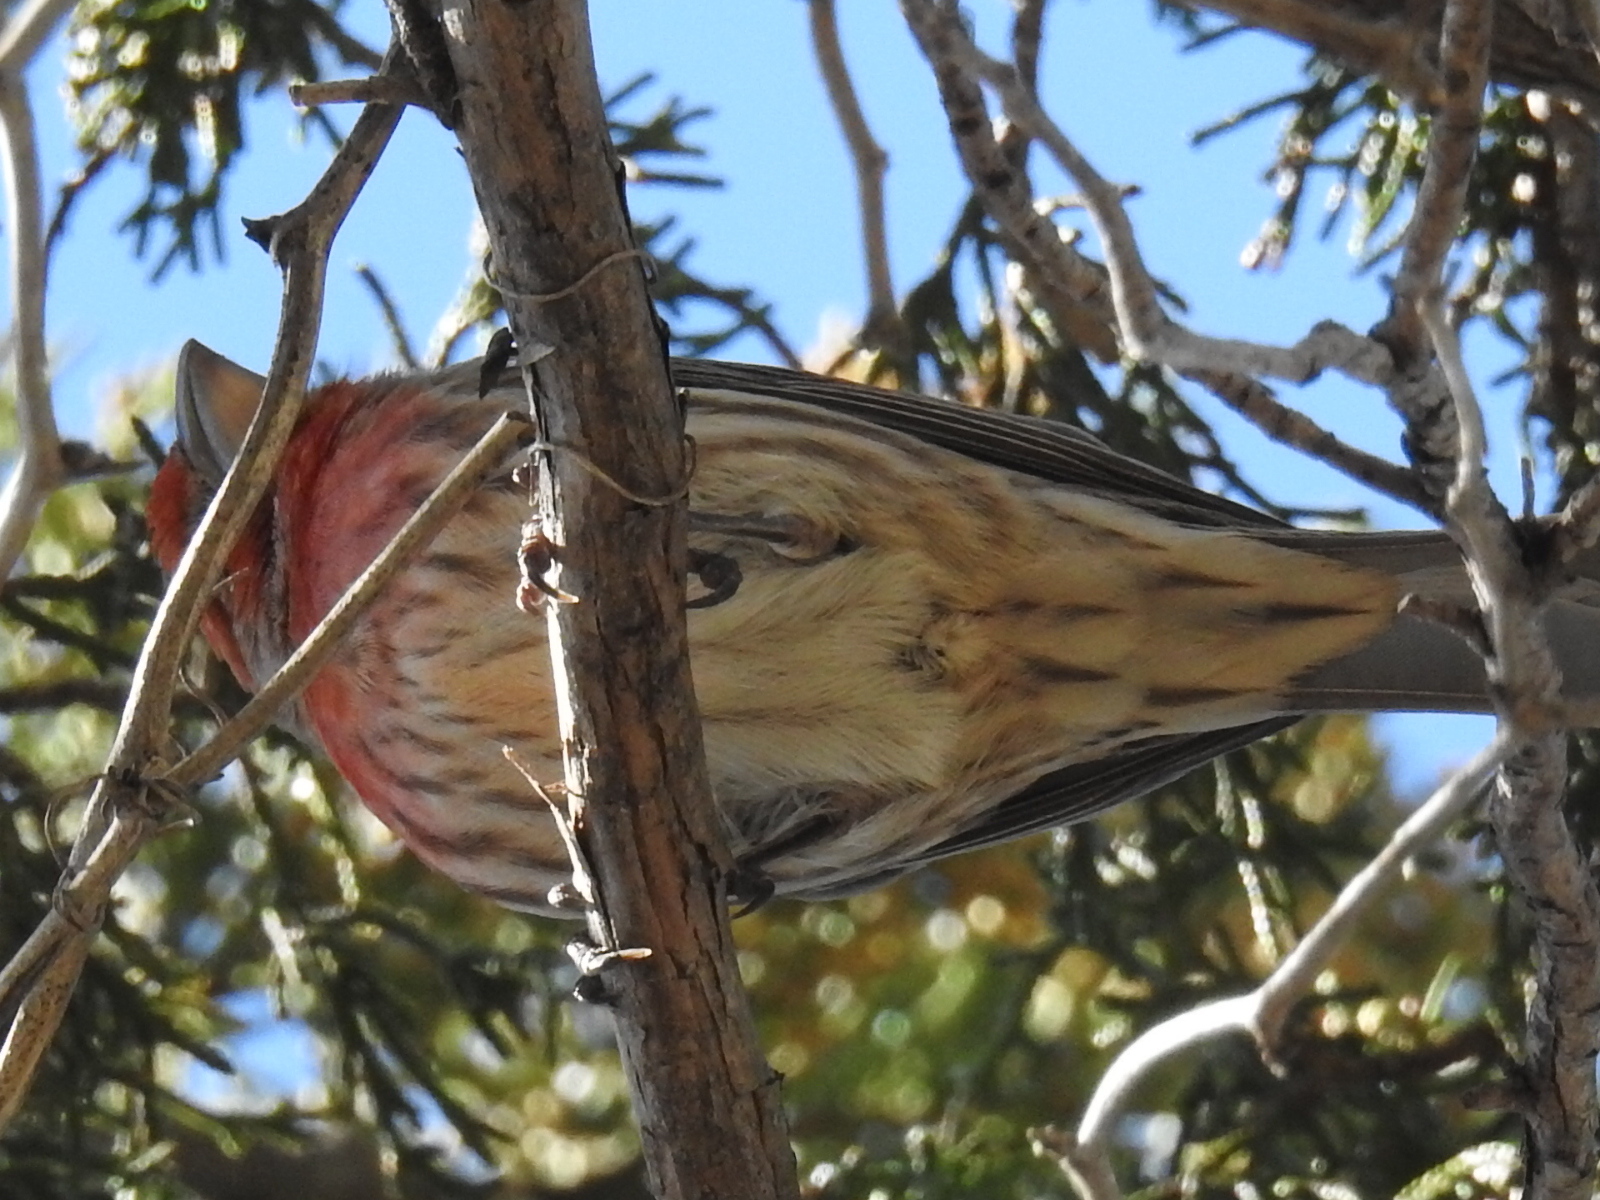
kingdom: Animalia
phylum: Chordata
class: Aves
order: Passeriformes
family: Fringillidae
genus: Haemorhous
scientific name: Haemorhous mexicanus
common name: House finch
